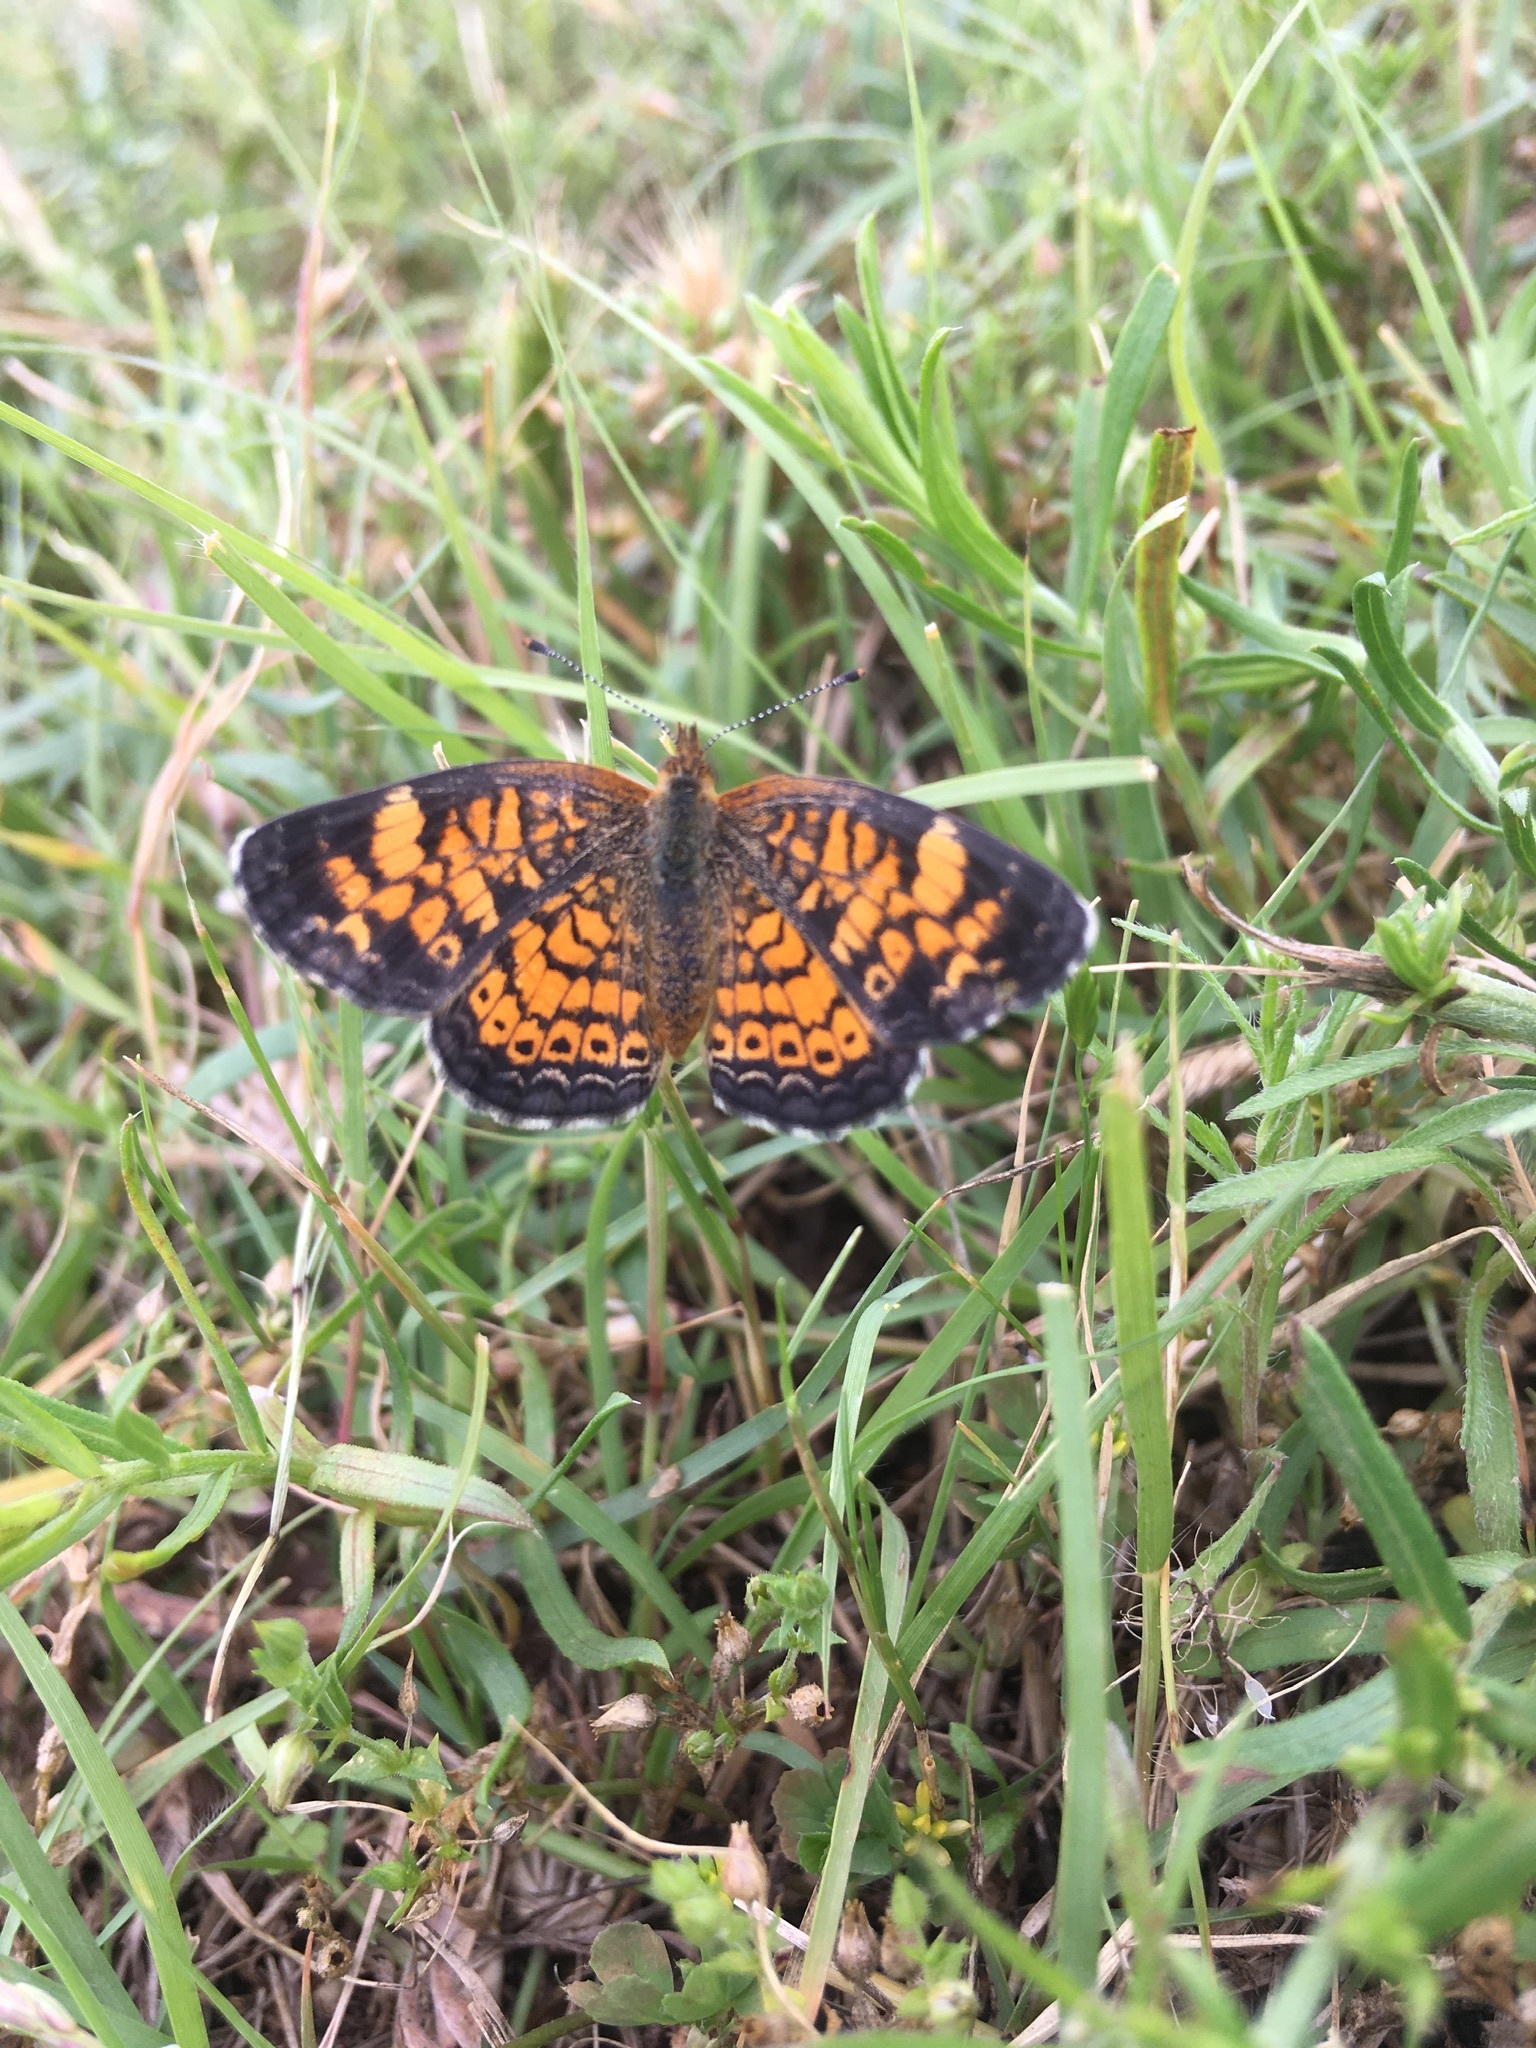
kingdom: Animalia
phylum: Arthropoda
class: Insecta
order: Lepidoptera
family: Nymphalidae
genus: Phyciodes
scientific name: Phyciodes tharos
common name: Pearl crescent
